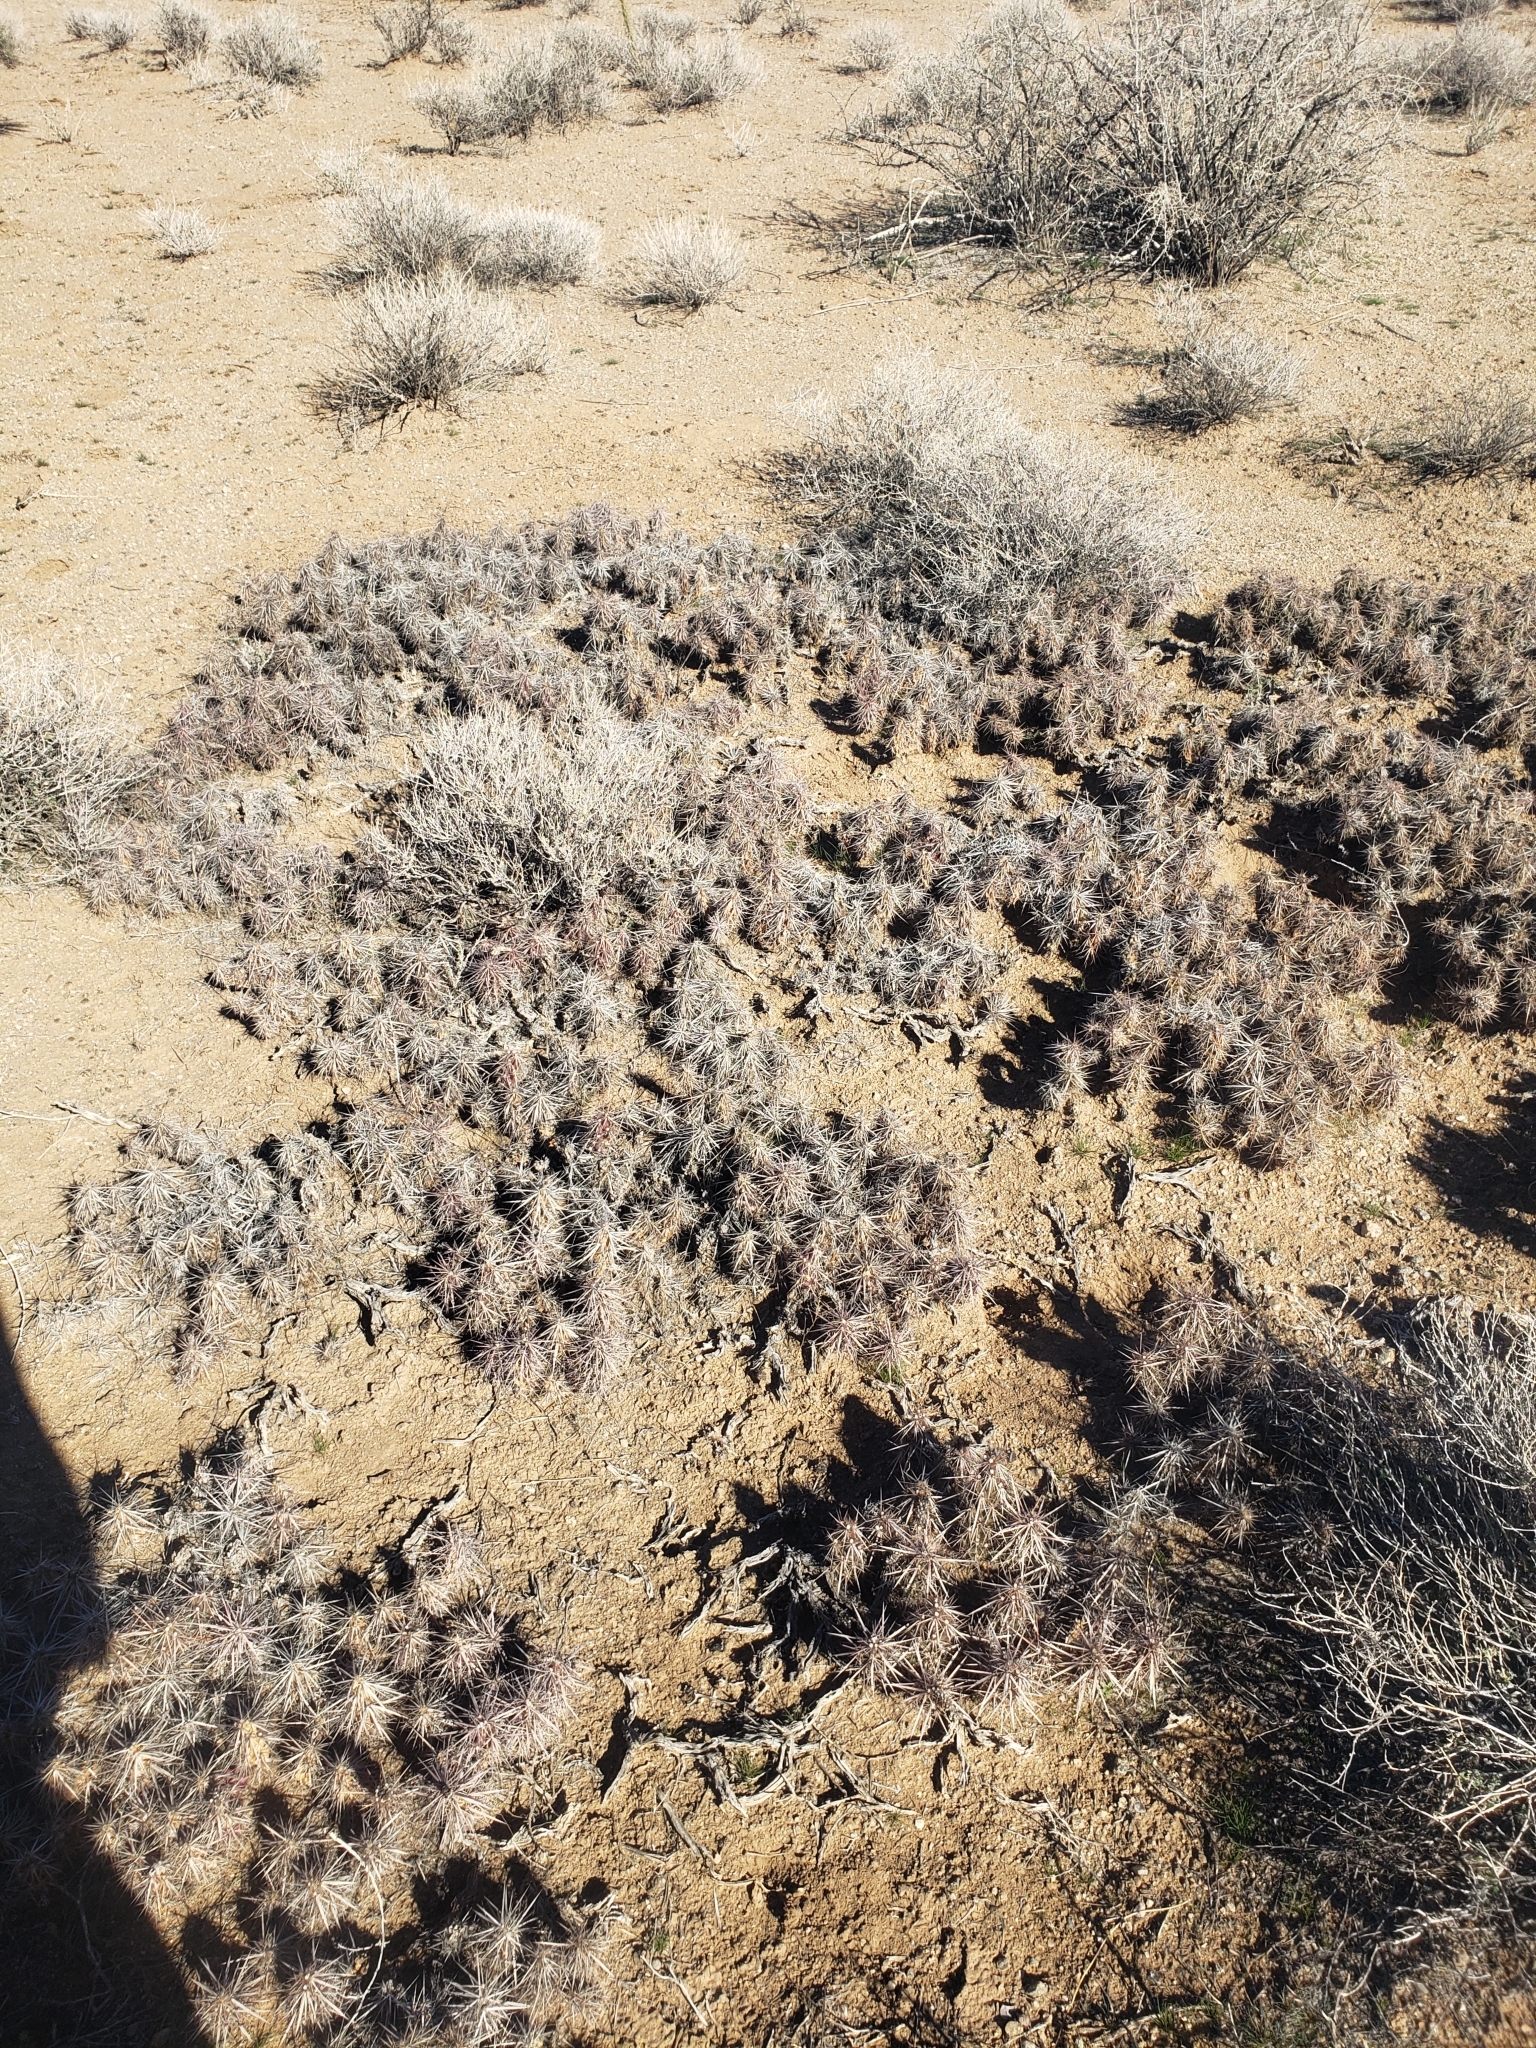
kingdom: Plantae
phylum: Tracheophyta
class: Magnoliopsida
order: Caryophyllales
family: Cactaceae
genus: Grusonia
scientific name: Grusonia parishiorum
